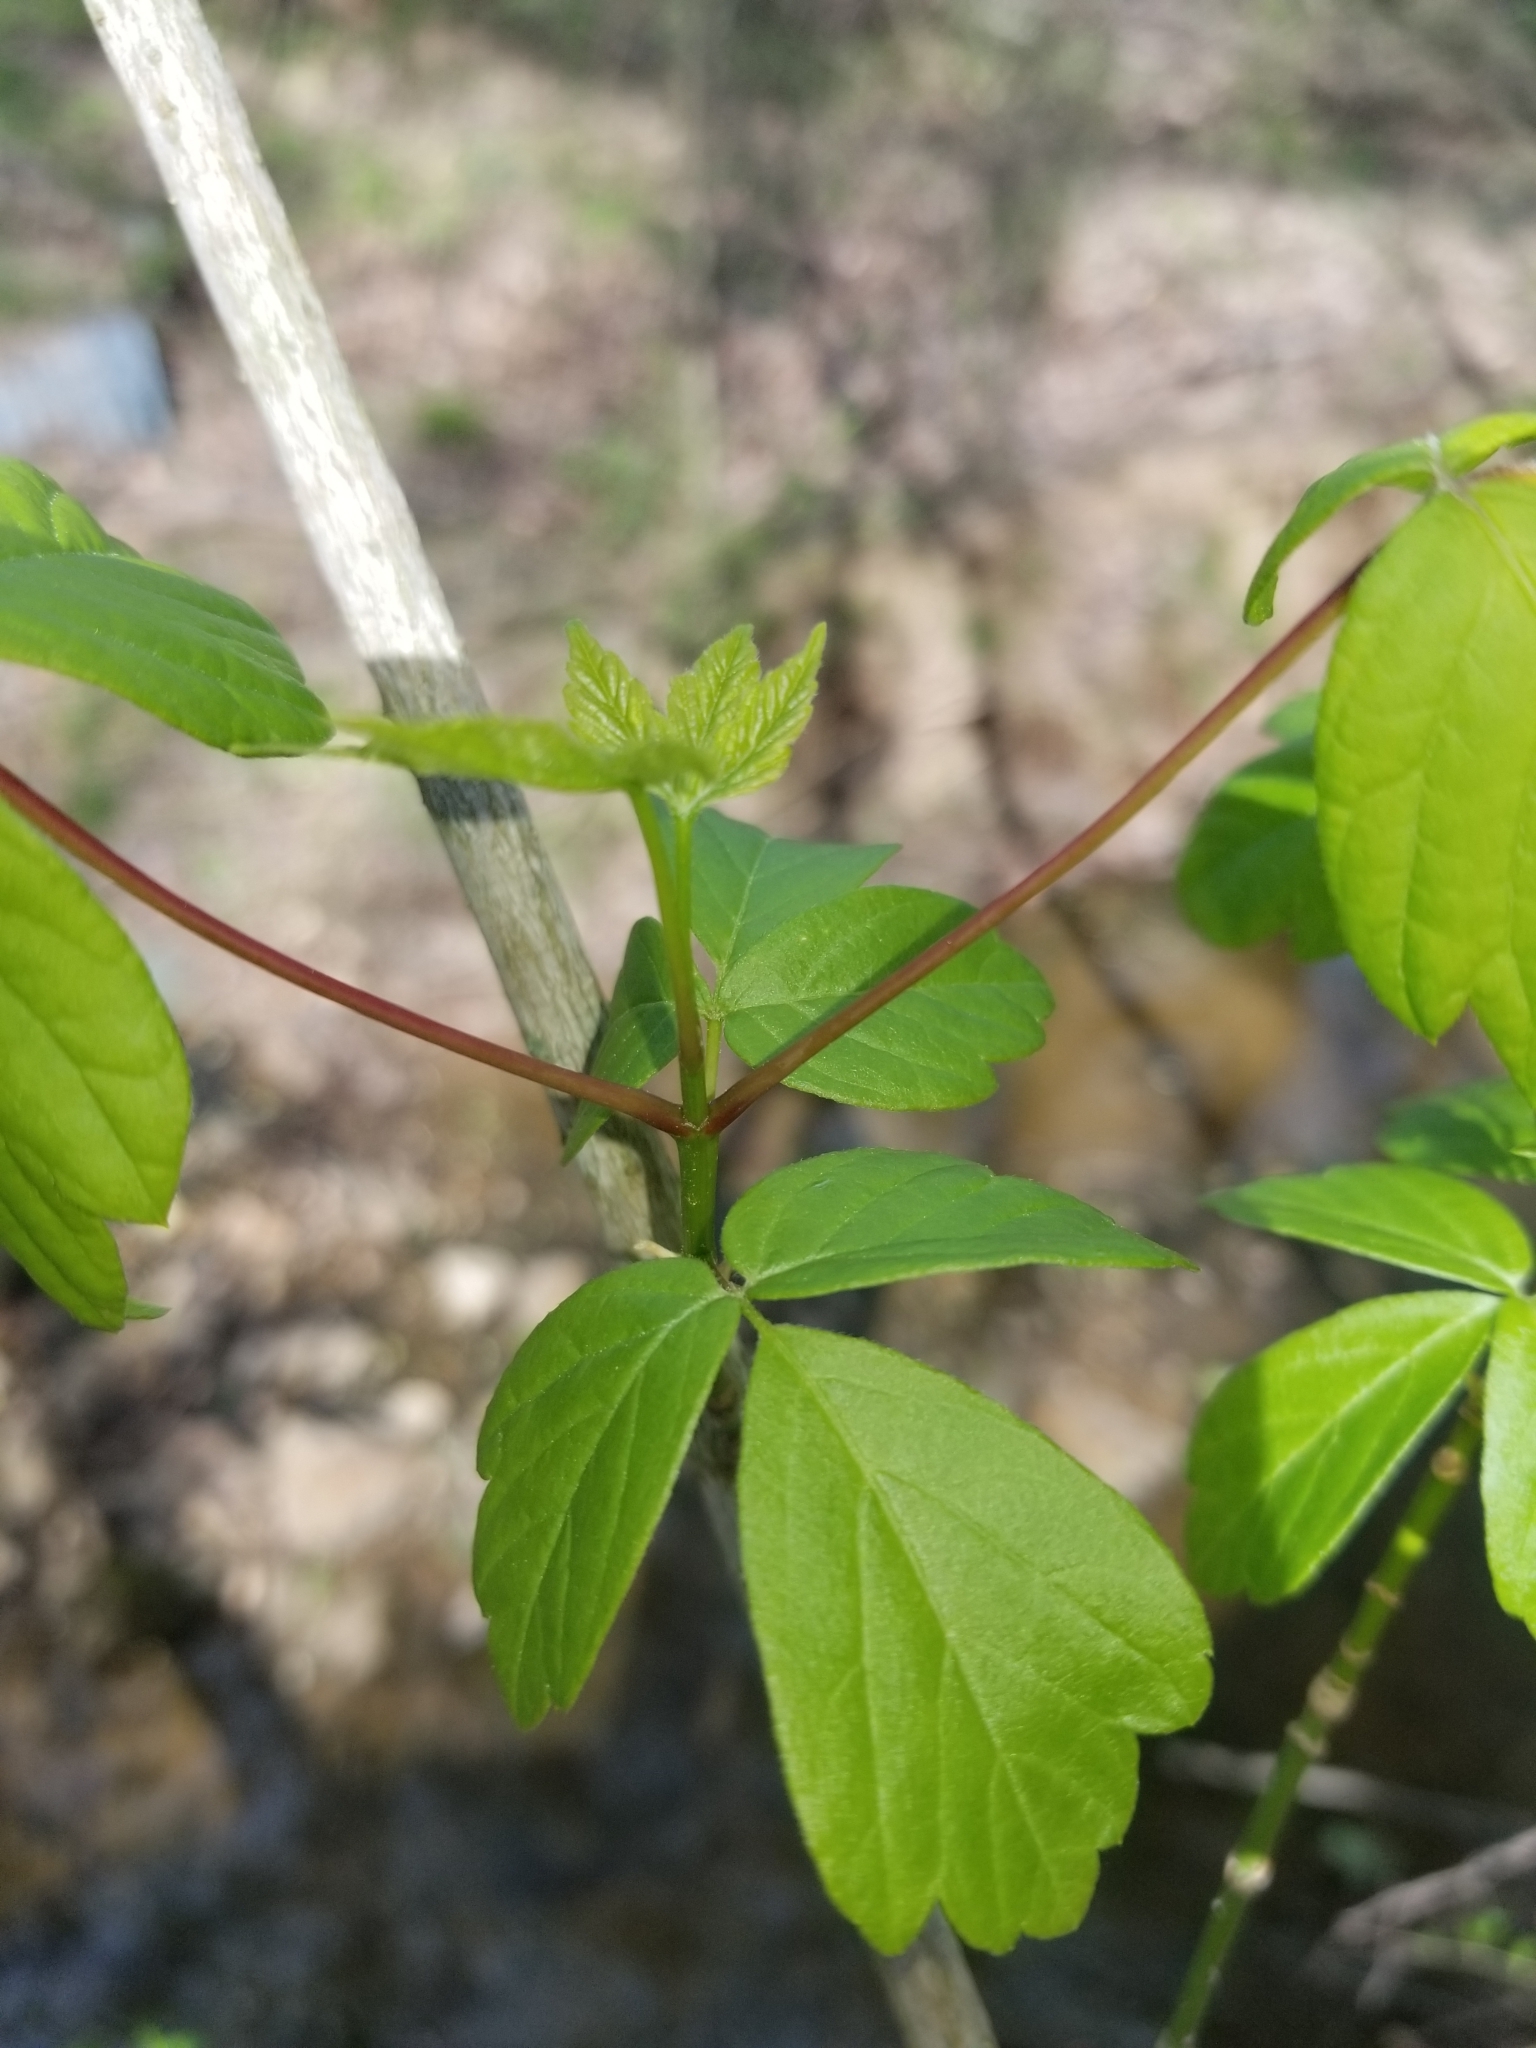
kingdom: Plantae
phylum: Tracheophyta
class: Magnoliopsida
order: Sapindales
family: Sapindaceae
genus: Acer
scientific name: Acer negundo
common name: Ashleaf maple
